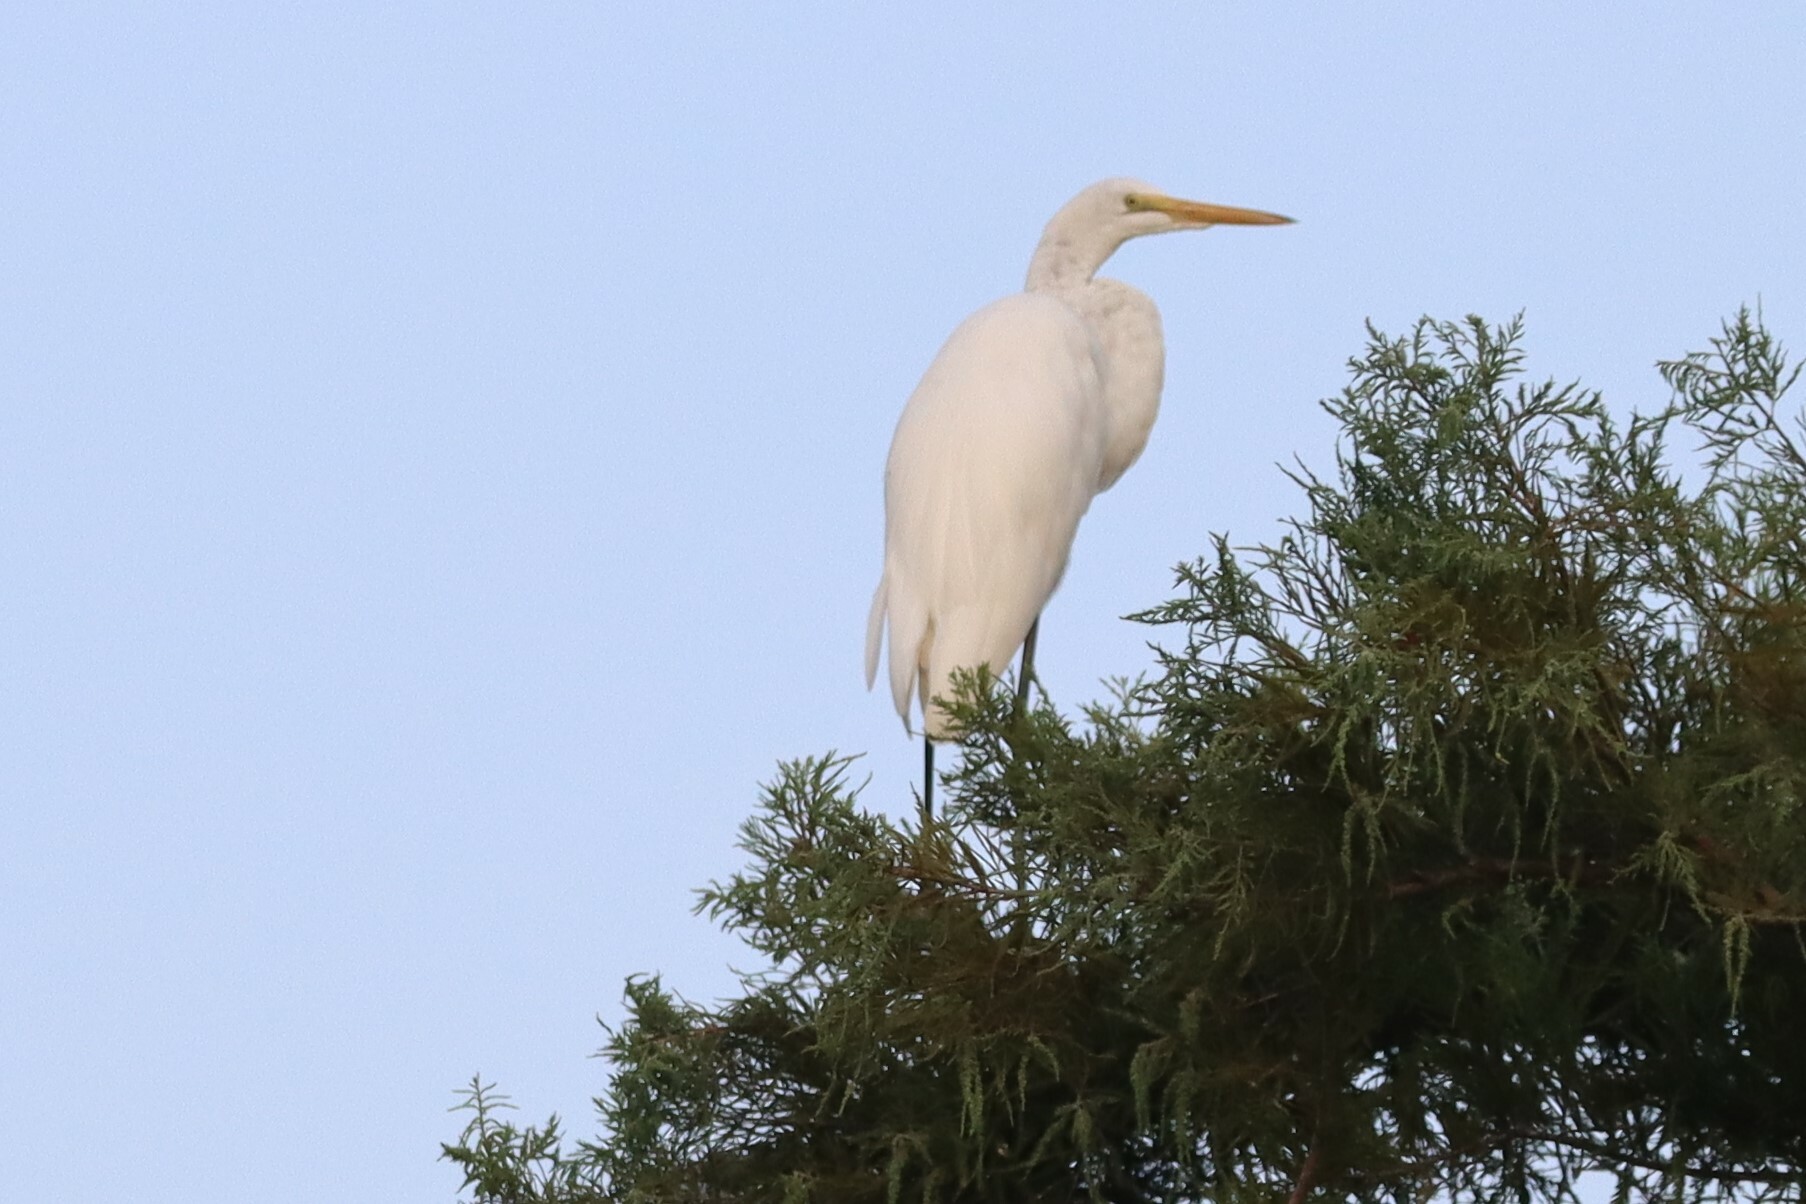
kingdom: Animalia
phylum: Chordata
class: Aves
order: Pelecaniformes
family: Ardeidae
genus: Ardea
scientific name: Ardea alba
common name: Great egret
